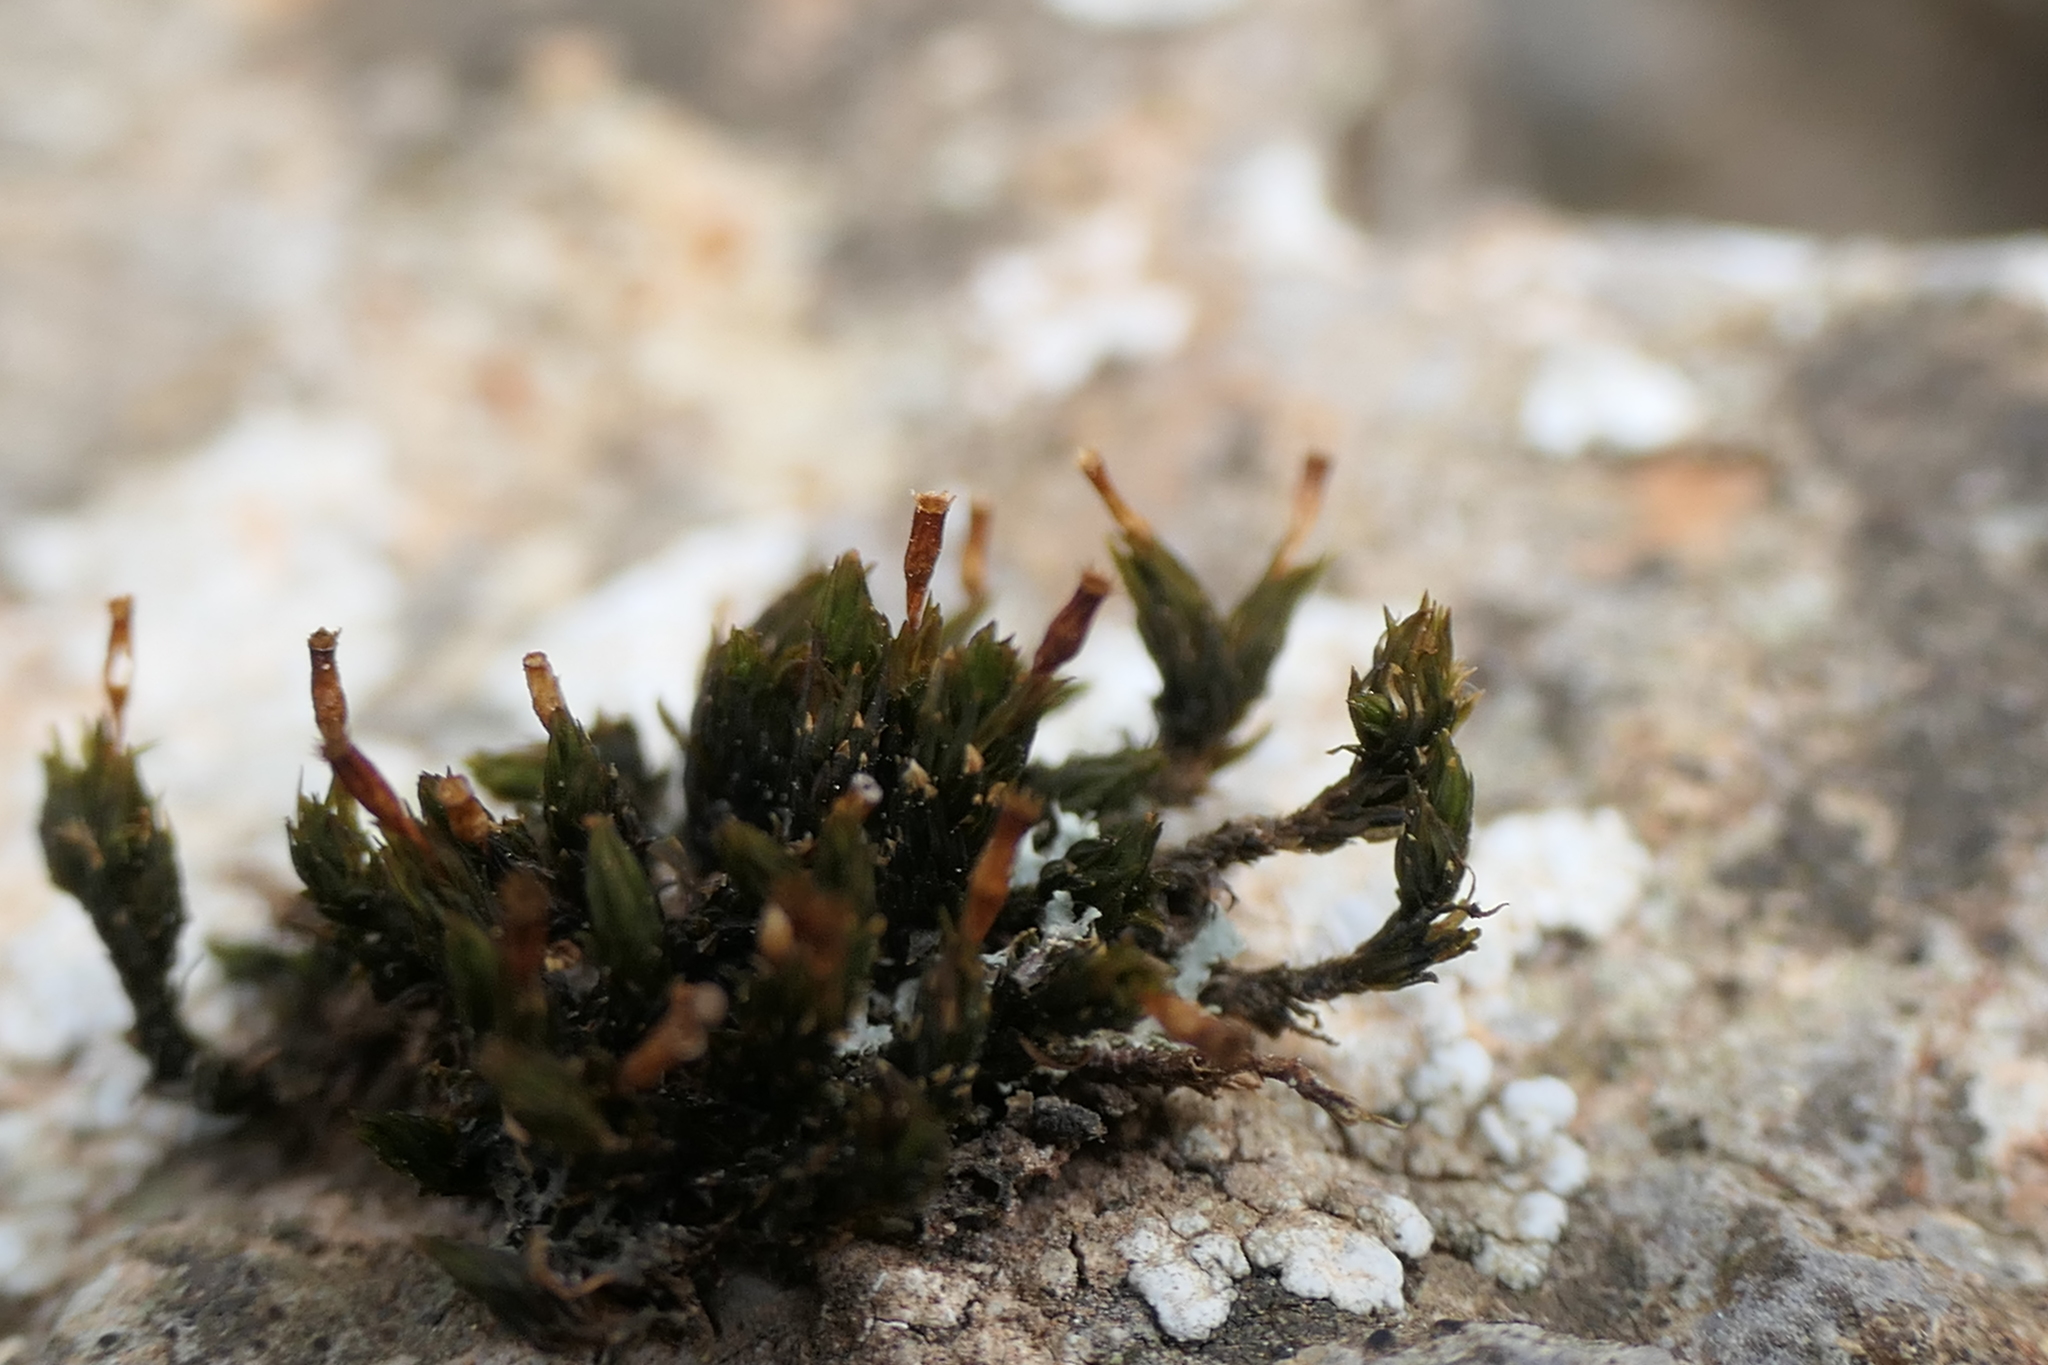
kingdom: Plantae
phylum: Bryophyta
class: Bryopsida
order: Orthotrichales
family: Orthotrichaceae
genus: Orthotrichum
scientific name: Orthotrichum anomalum
